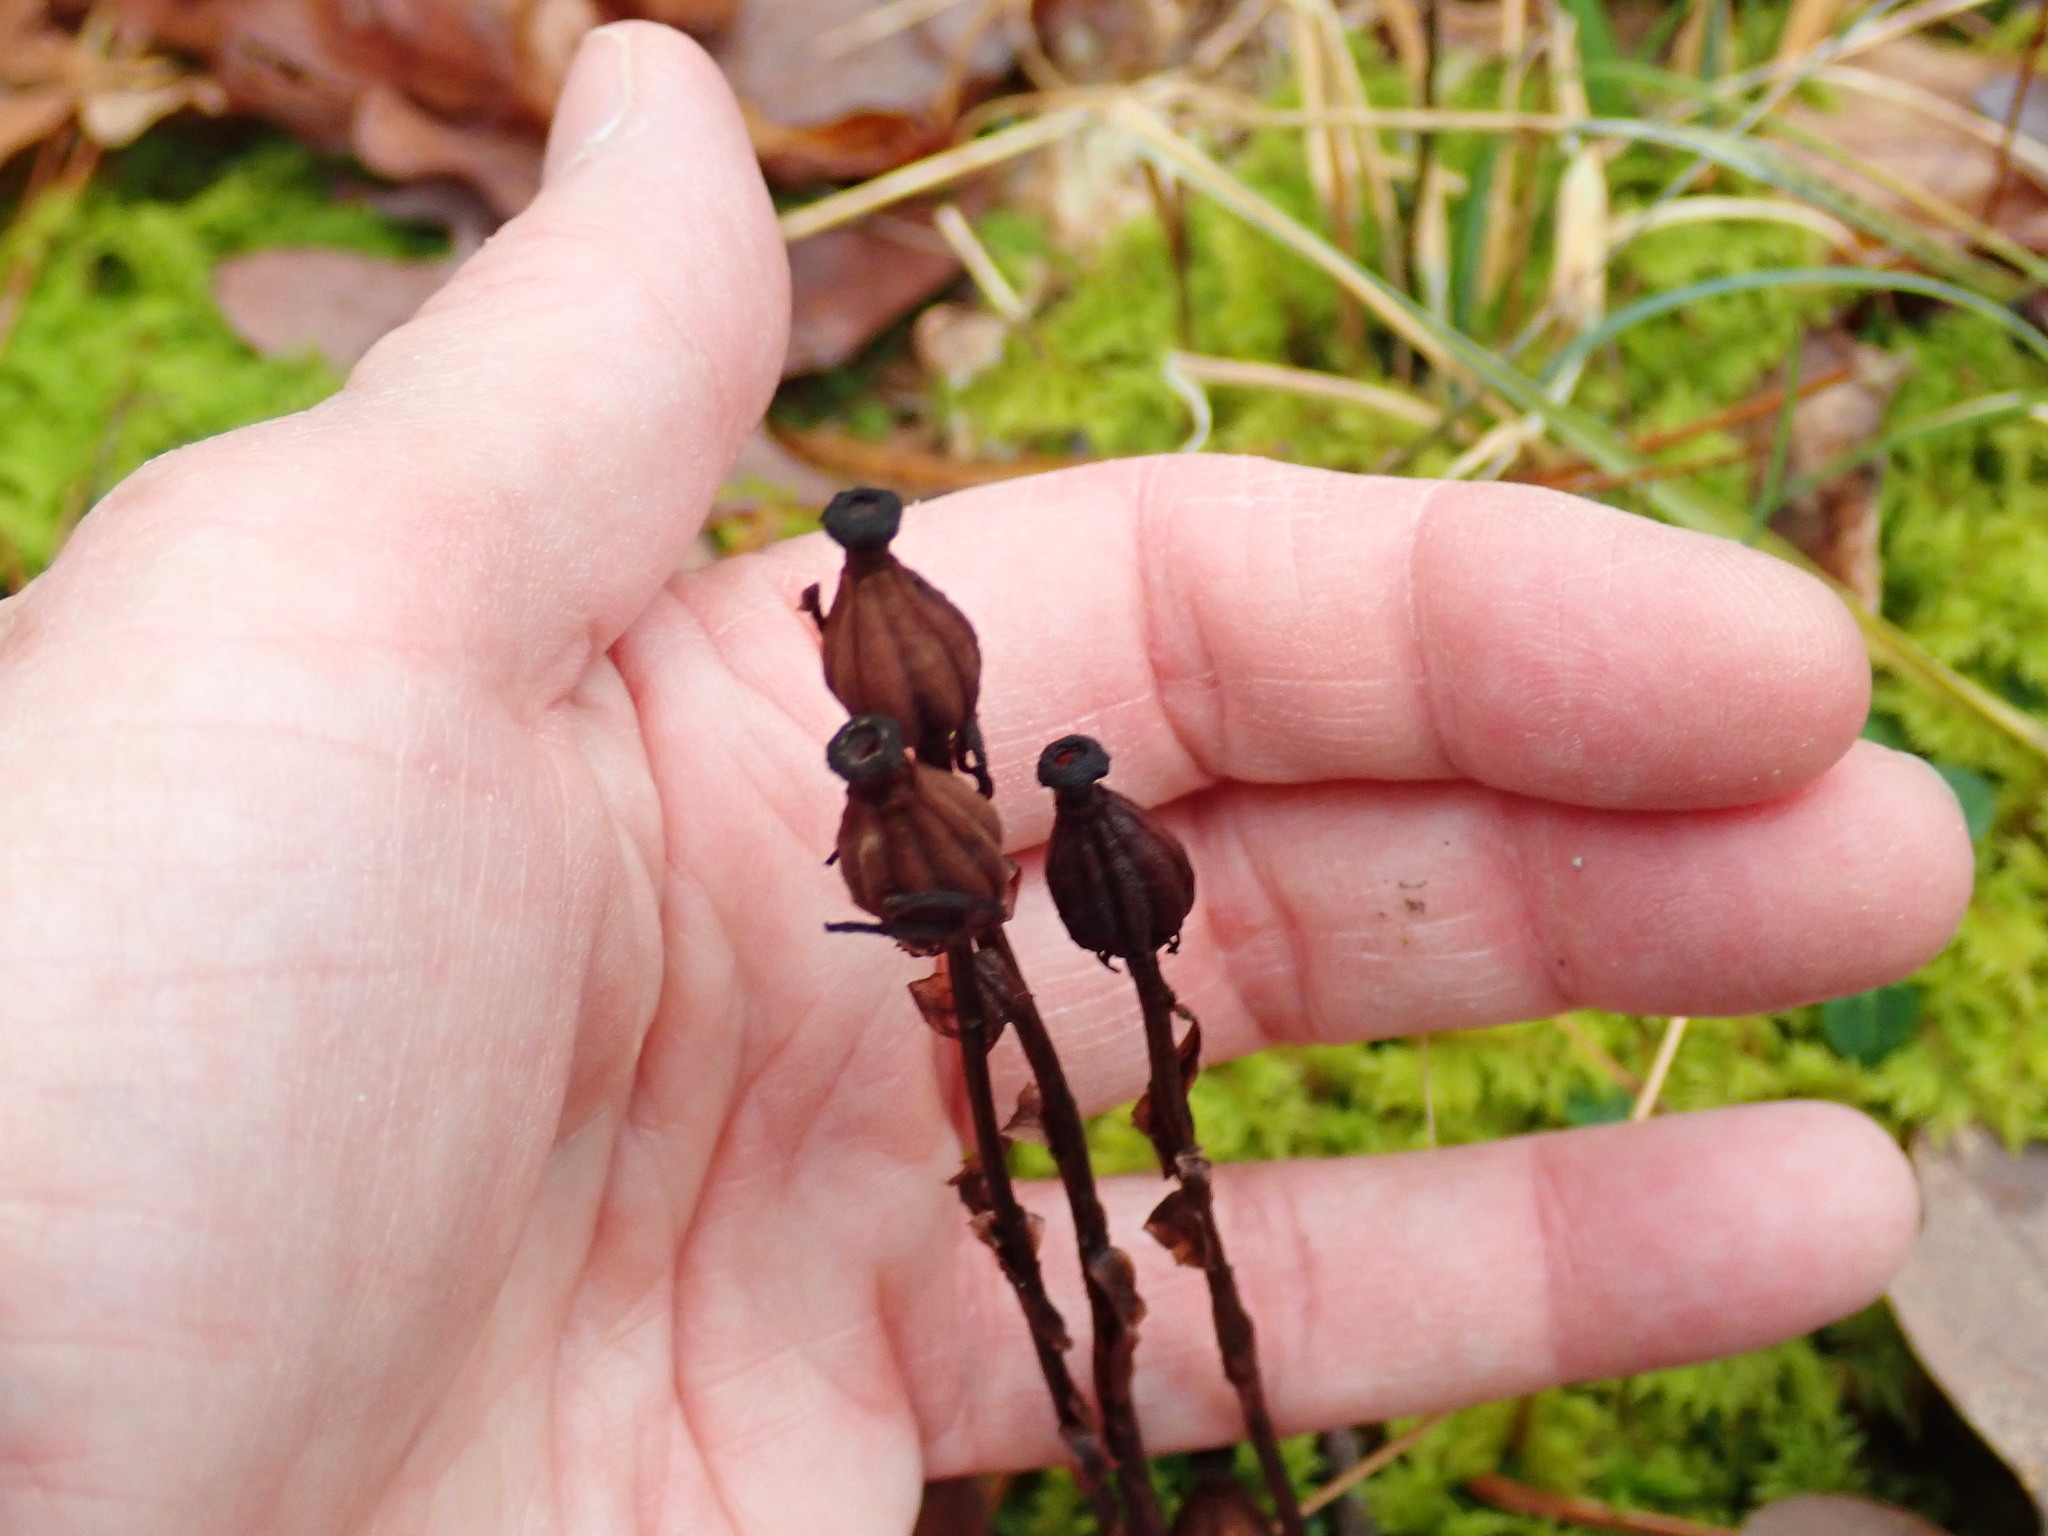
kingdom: Plantae
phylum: Tracheophyta
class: Magnoliopsida
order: Ericales
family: Ericaceae
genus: Monotropa
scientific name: Monotropa uniflora
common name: Convulsion root
